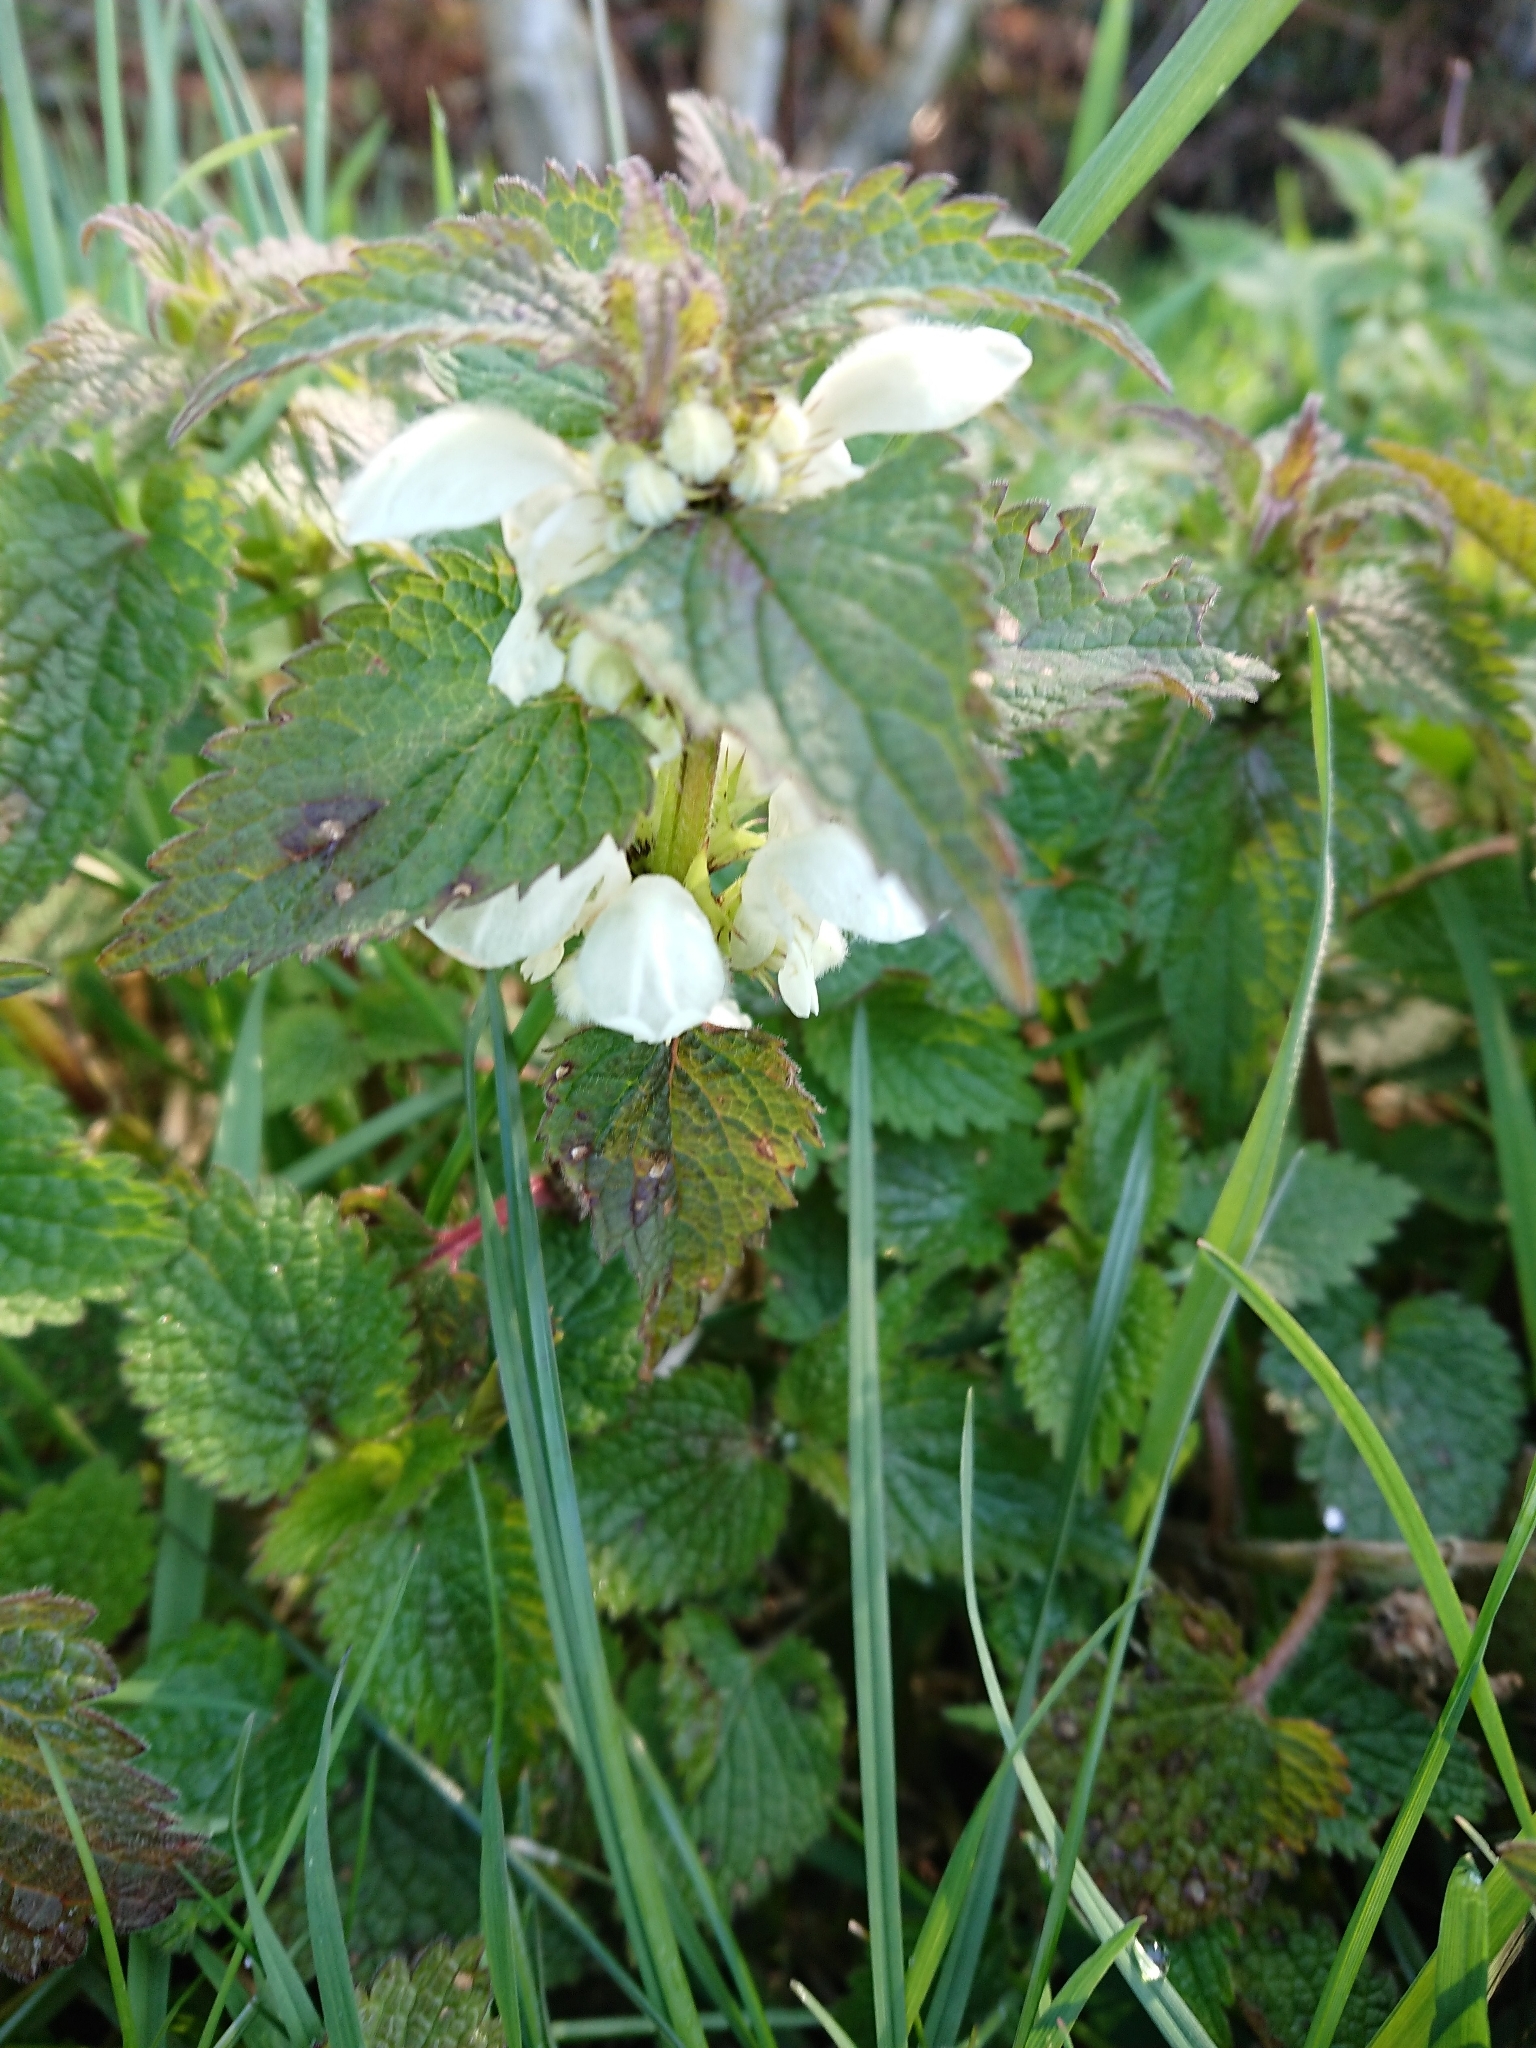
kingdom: Plantae
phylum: Tracheophyta
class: Magnoliopsida
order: Lamiales
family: Lamiaceae
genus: Lamium
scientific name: Lamium album
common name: White dead-nettle
